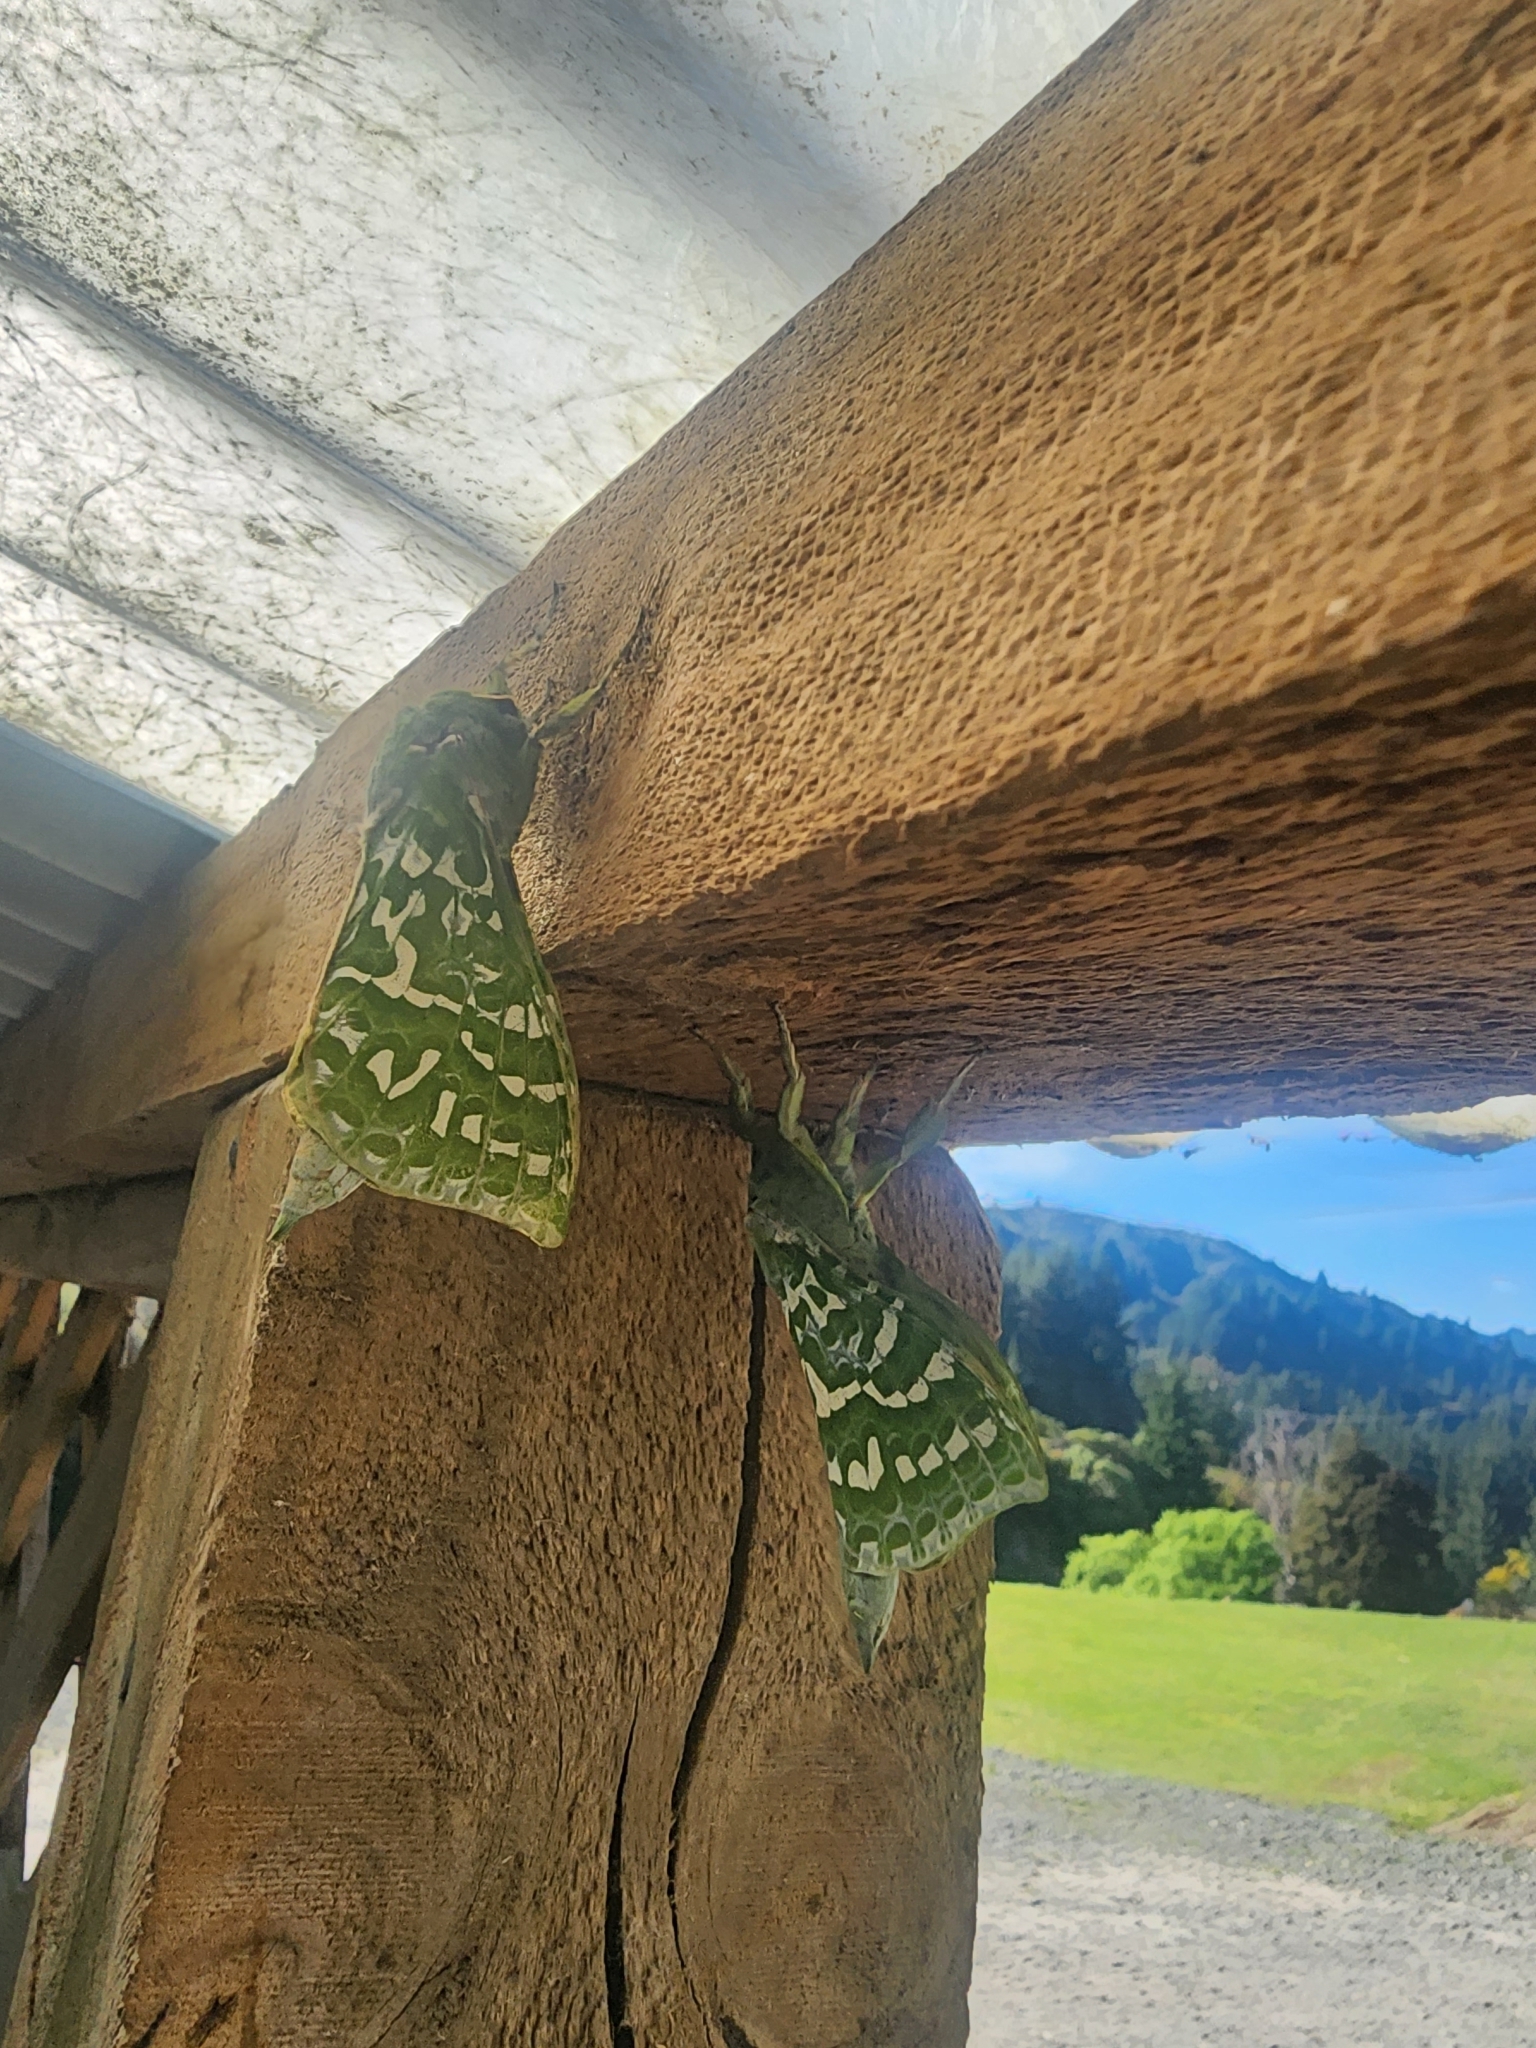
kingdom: Animalia
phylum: Arthropoda
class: Insecta
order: Lepidoptera
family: Hepialidae
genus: Aenetus
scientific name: Aenetus virescens
